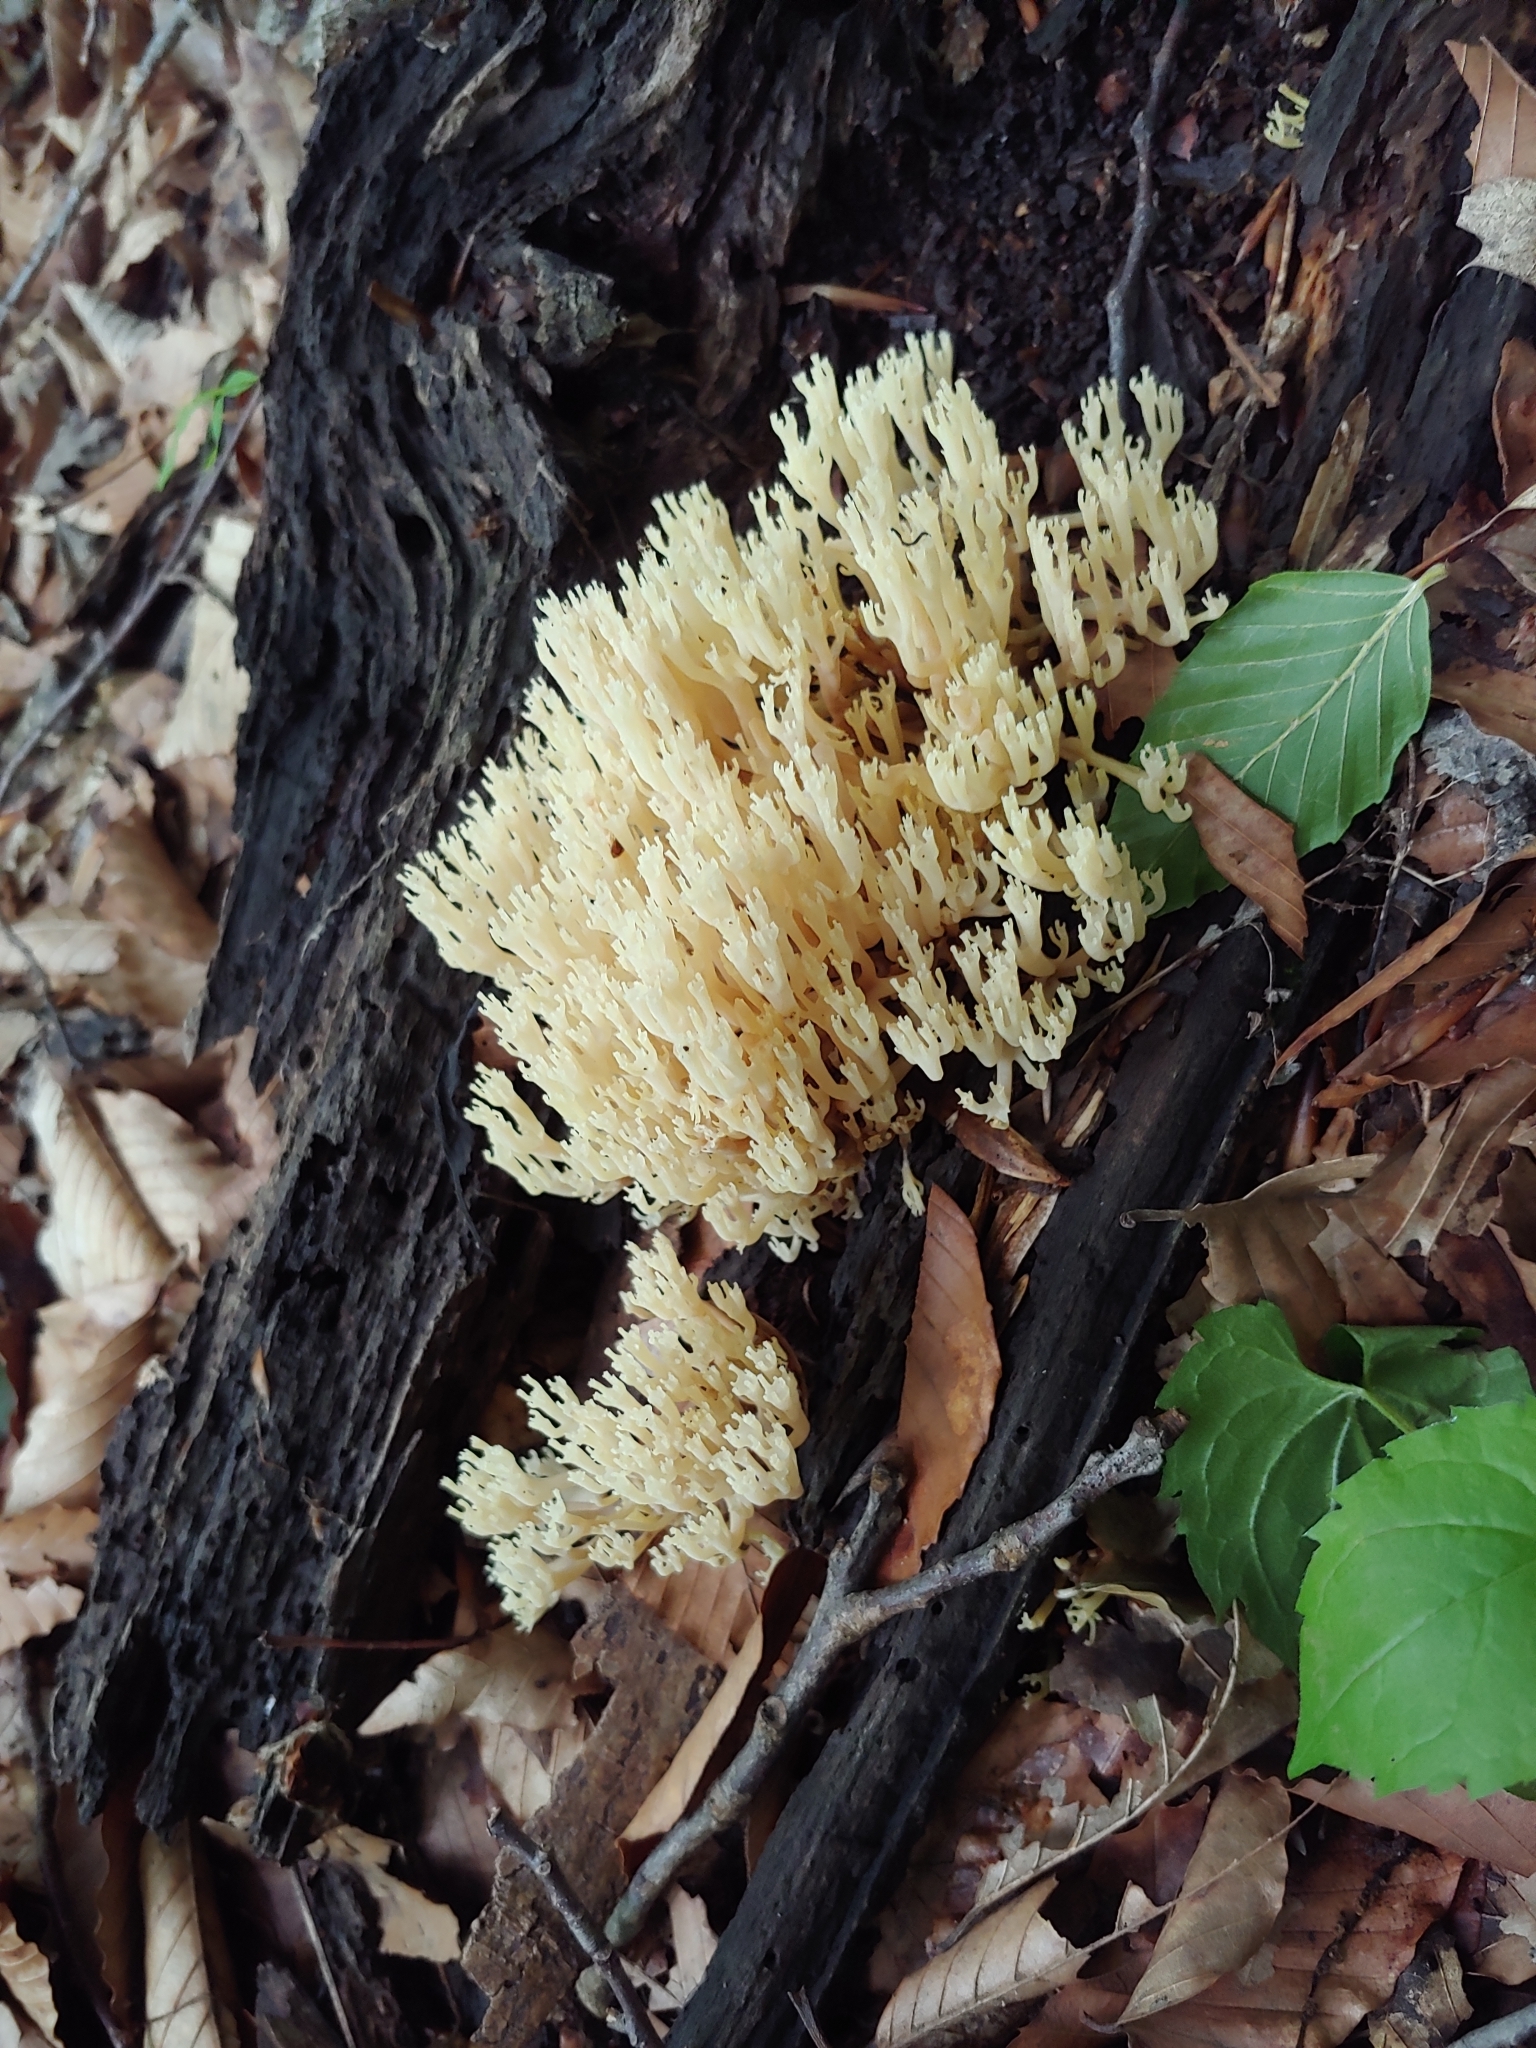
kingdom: Fungi
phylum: Basidiomycota
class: Agaricomycetes
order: Russulales
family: Auriscalpiaceae
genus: Artomyces
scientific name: Artomyces pyxidatus
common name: Crown-tipped coral fungus
